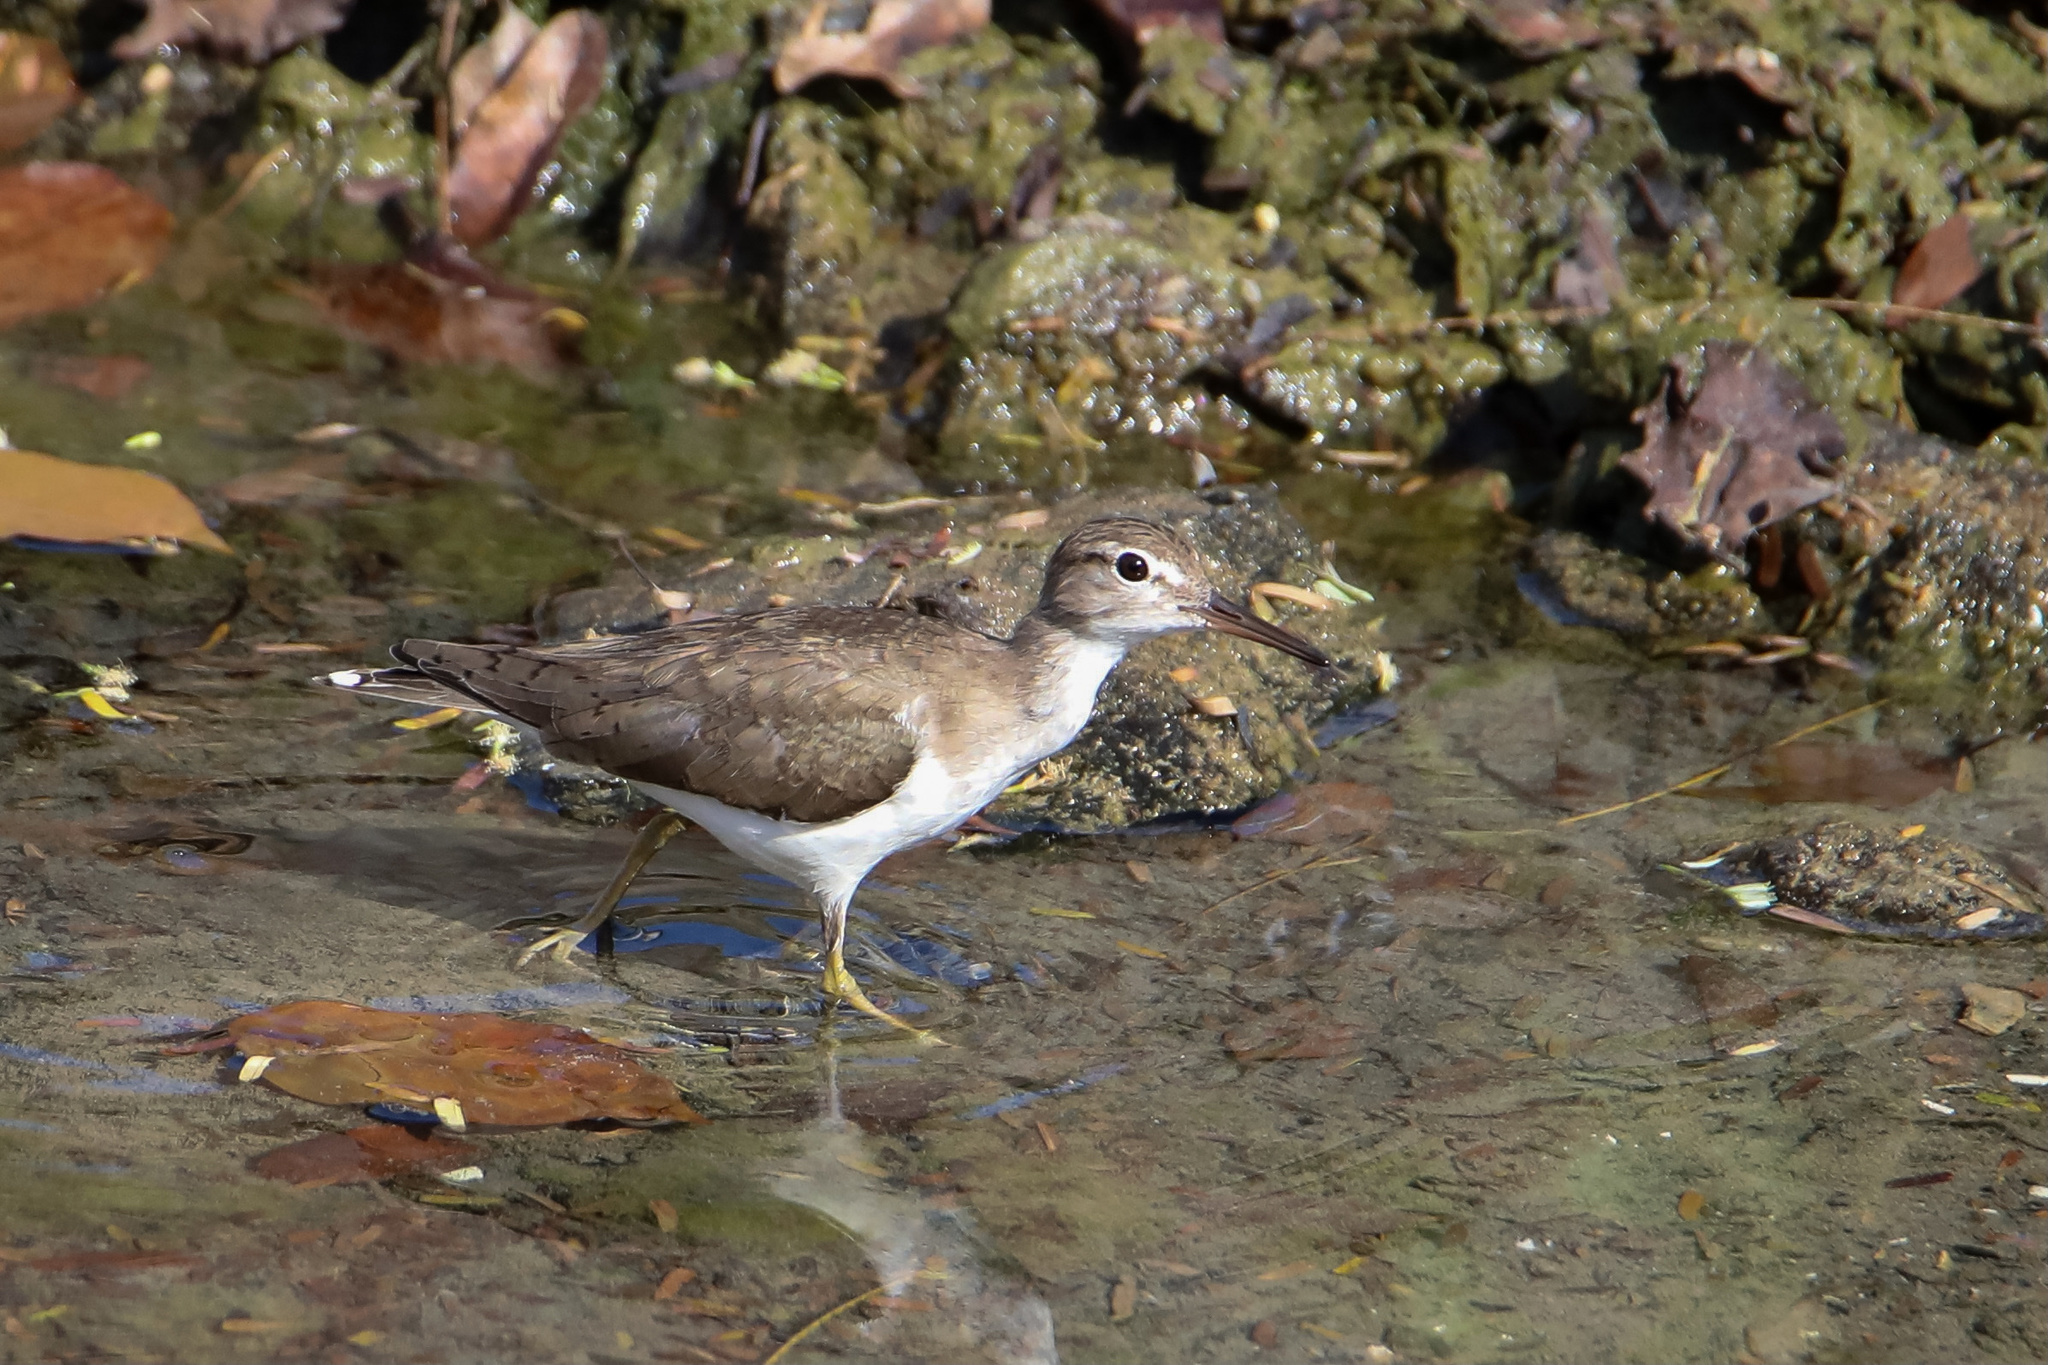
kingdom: Animalia
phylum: Chordata
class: Aves
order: Charadriiformes
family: Scolopacidae
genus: Actitis
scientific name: Actitis macularius
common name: Spotted sandpiper
